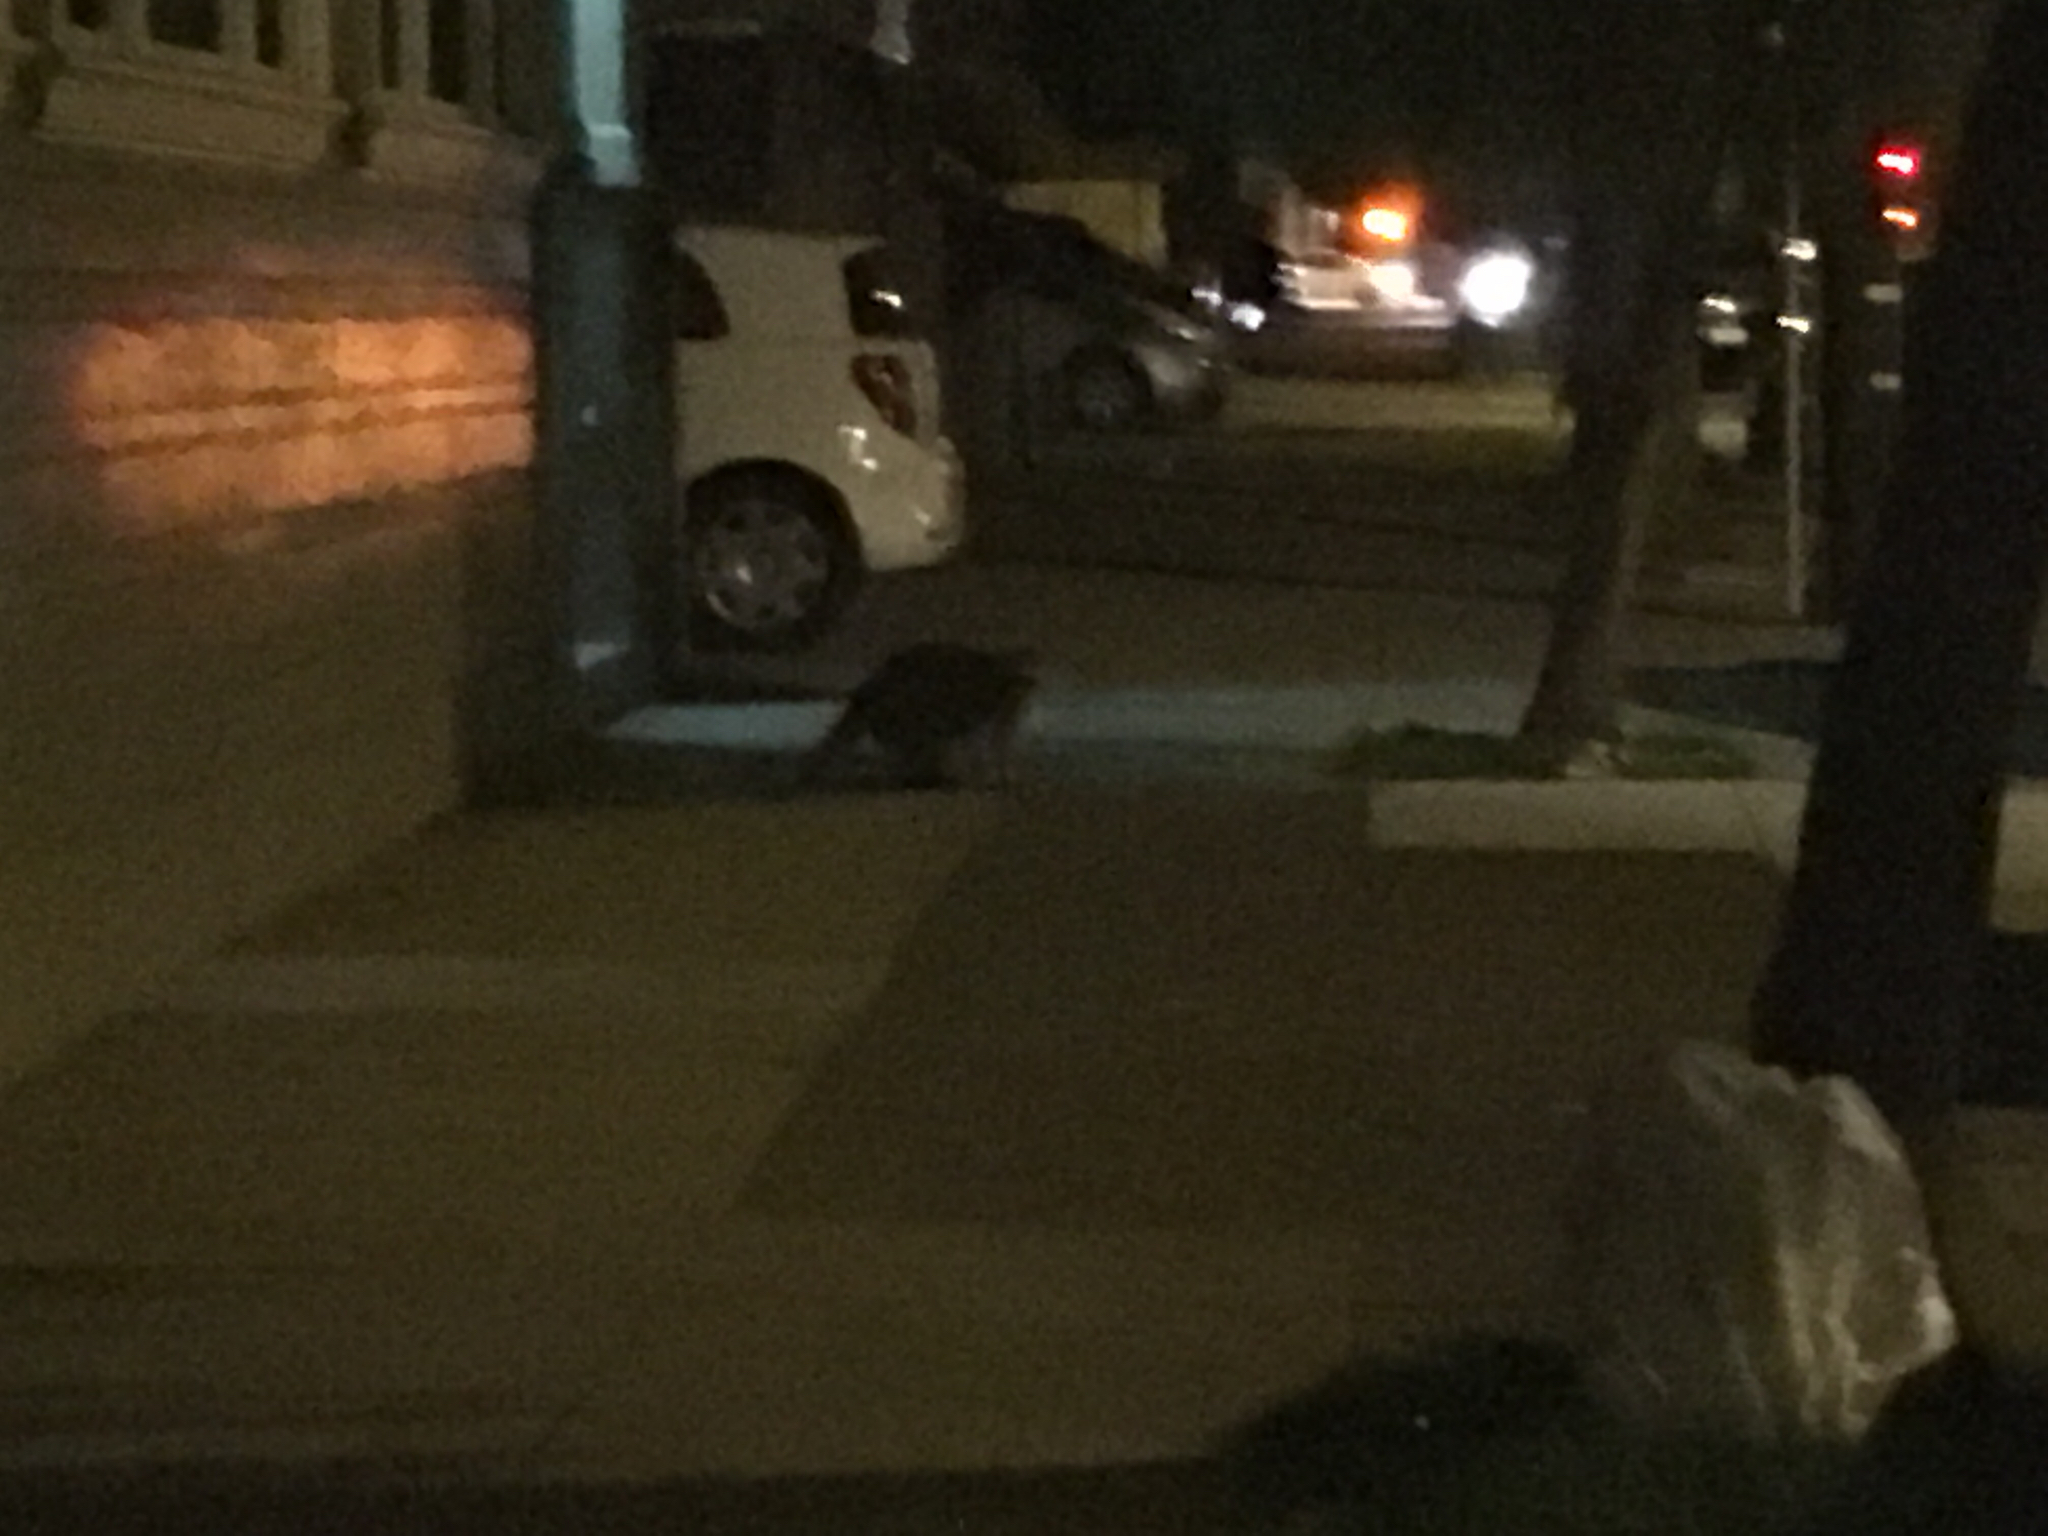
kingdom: Animalia
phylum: Chordata
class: Mammalia
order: Carnivora
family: Procyonidae
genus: Procyon
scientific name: Procyon lotor
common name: Raccoon
